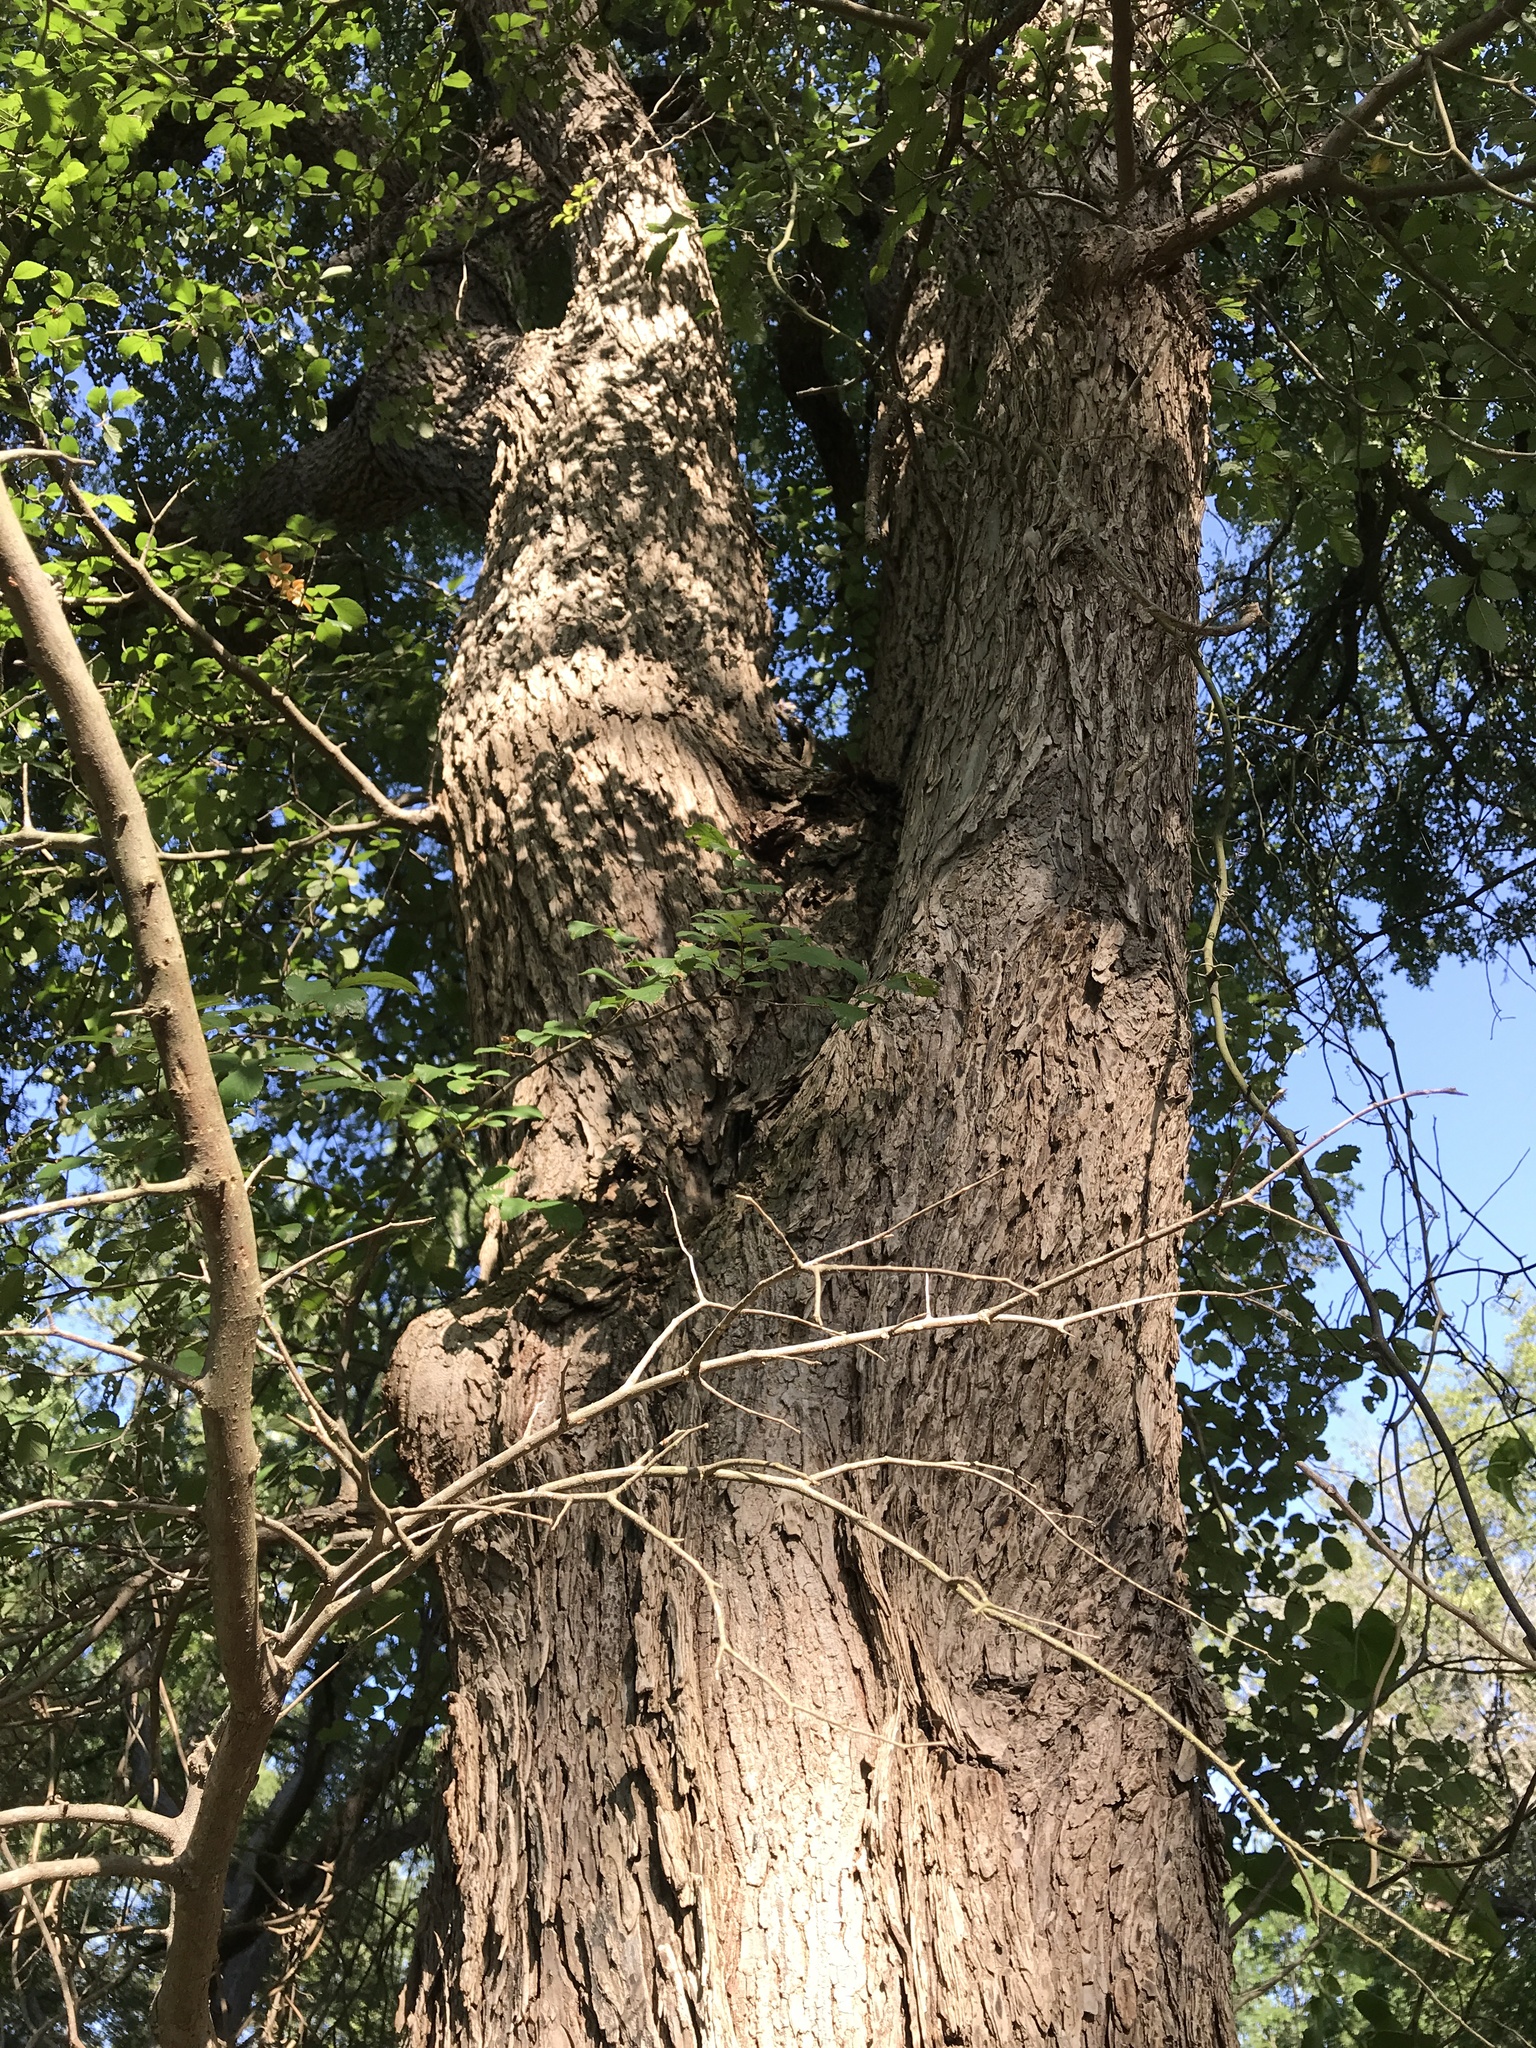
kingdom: Plantae
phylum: Tracheophyta
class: Magnoliopsida
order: Rosales
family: Ulmaceae
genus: Ulmus
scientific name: Ulmus crassifolia
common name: Basket elm
